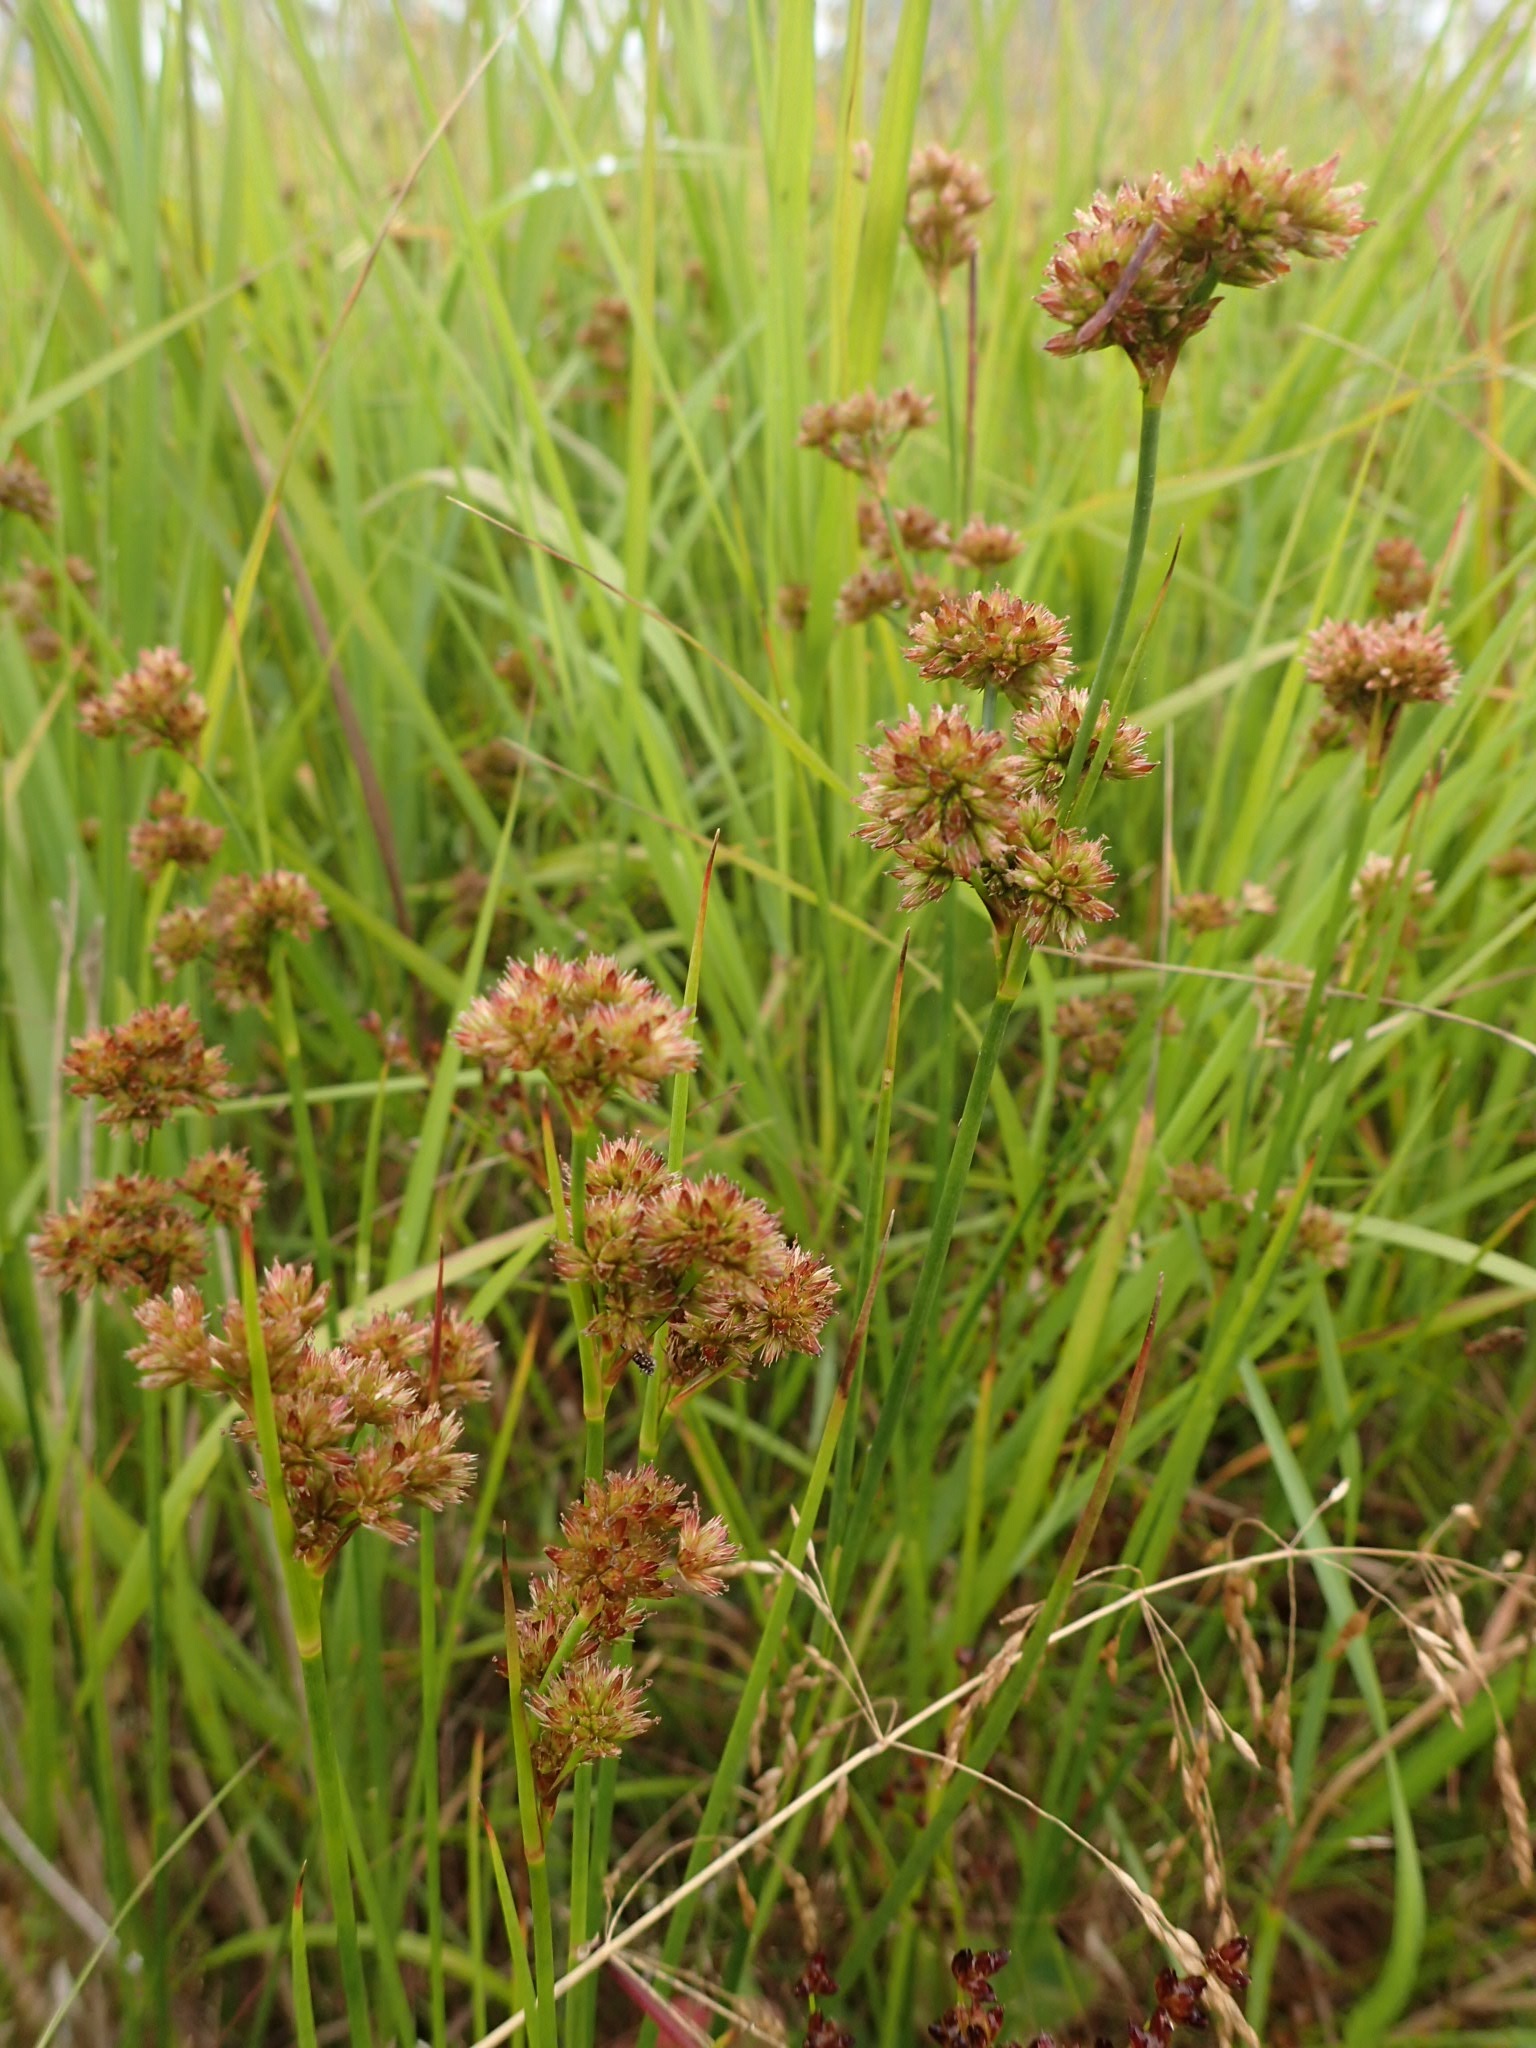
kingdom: Plantae
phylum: Tracheophyta
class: Liliopsida
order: Poales
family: Juncaceae
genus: Juncus
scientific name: Juncus canadensis
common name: Canada rush
